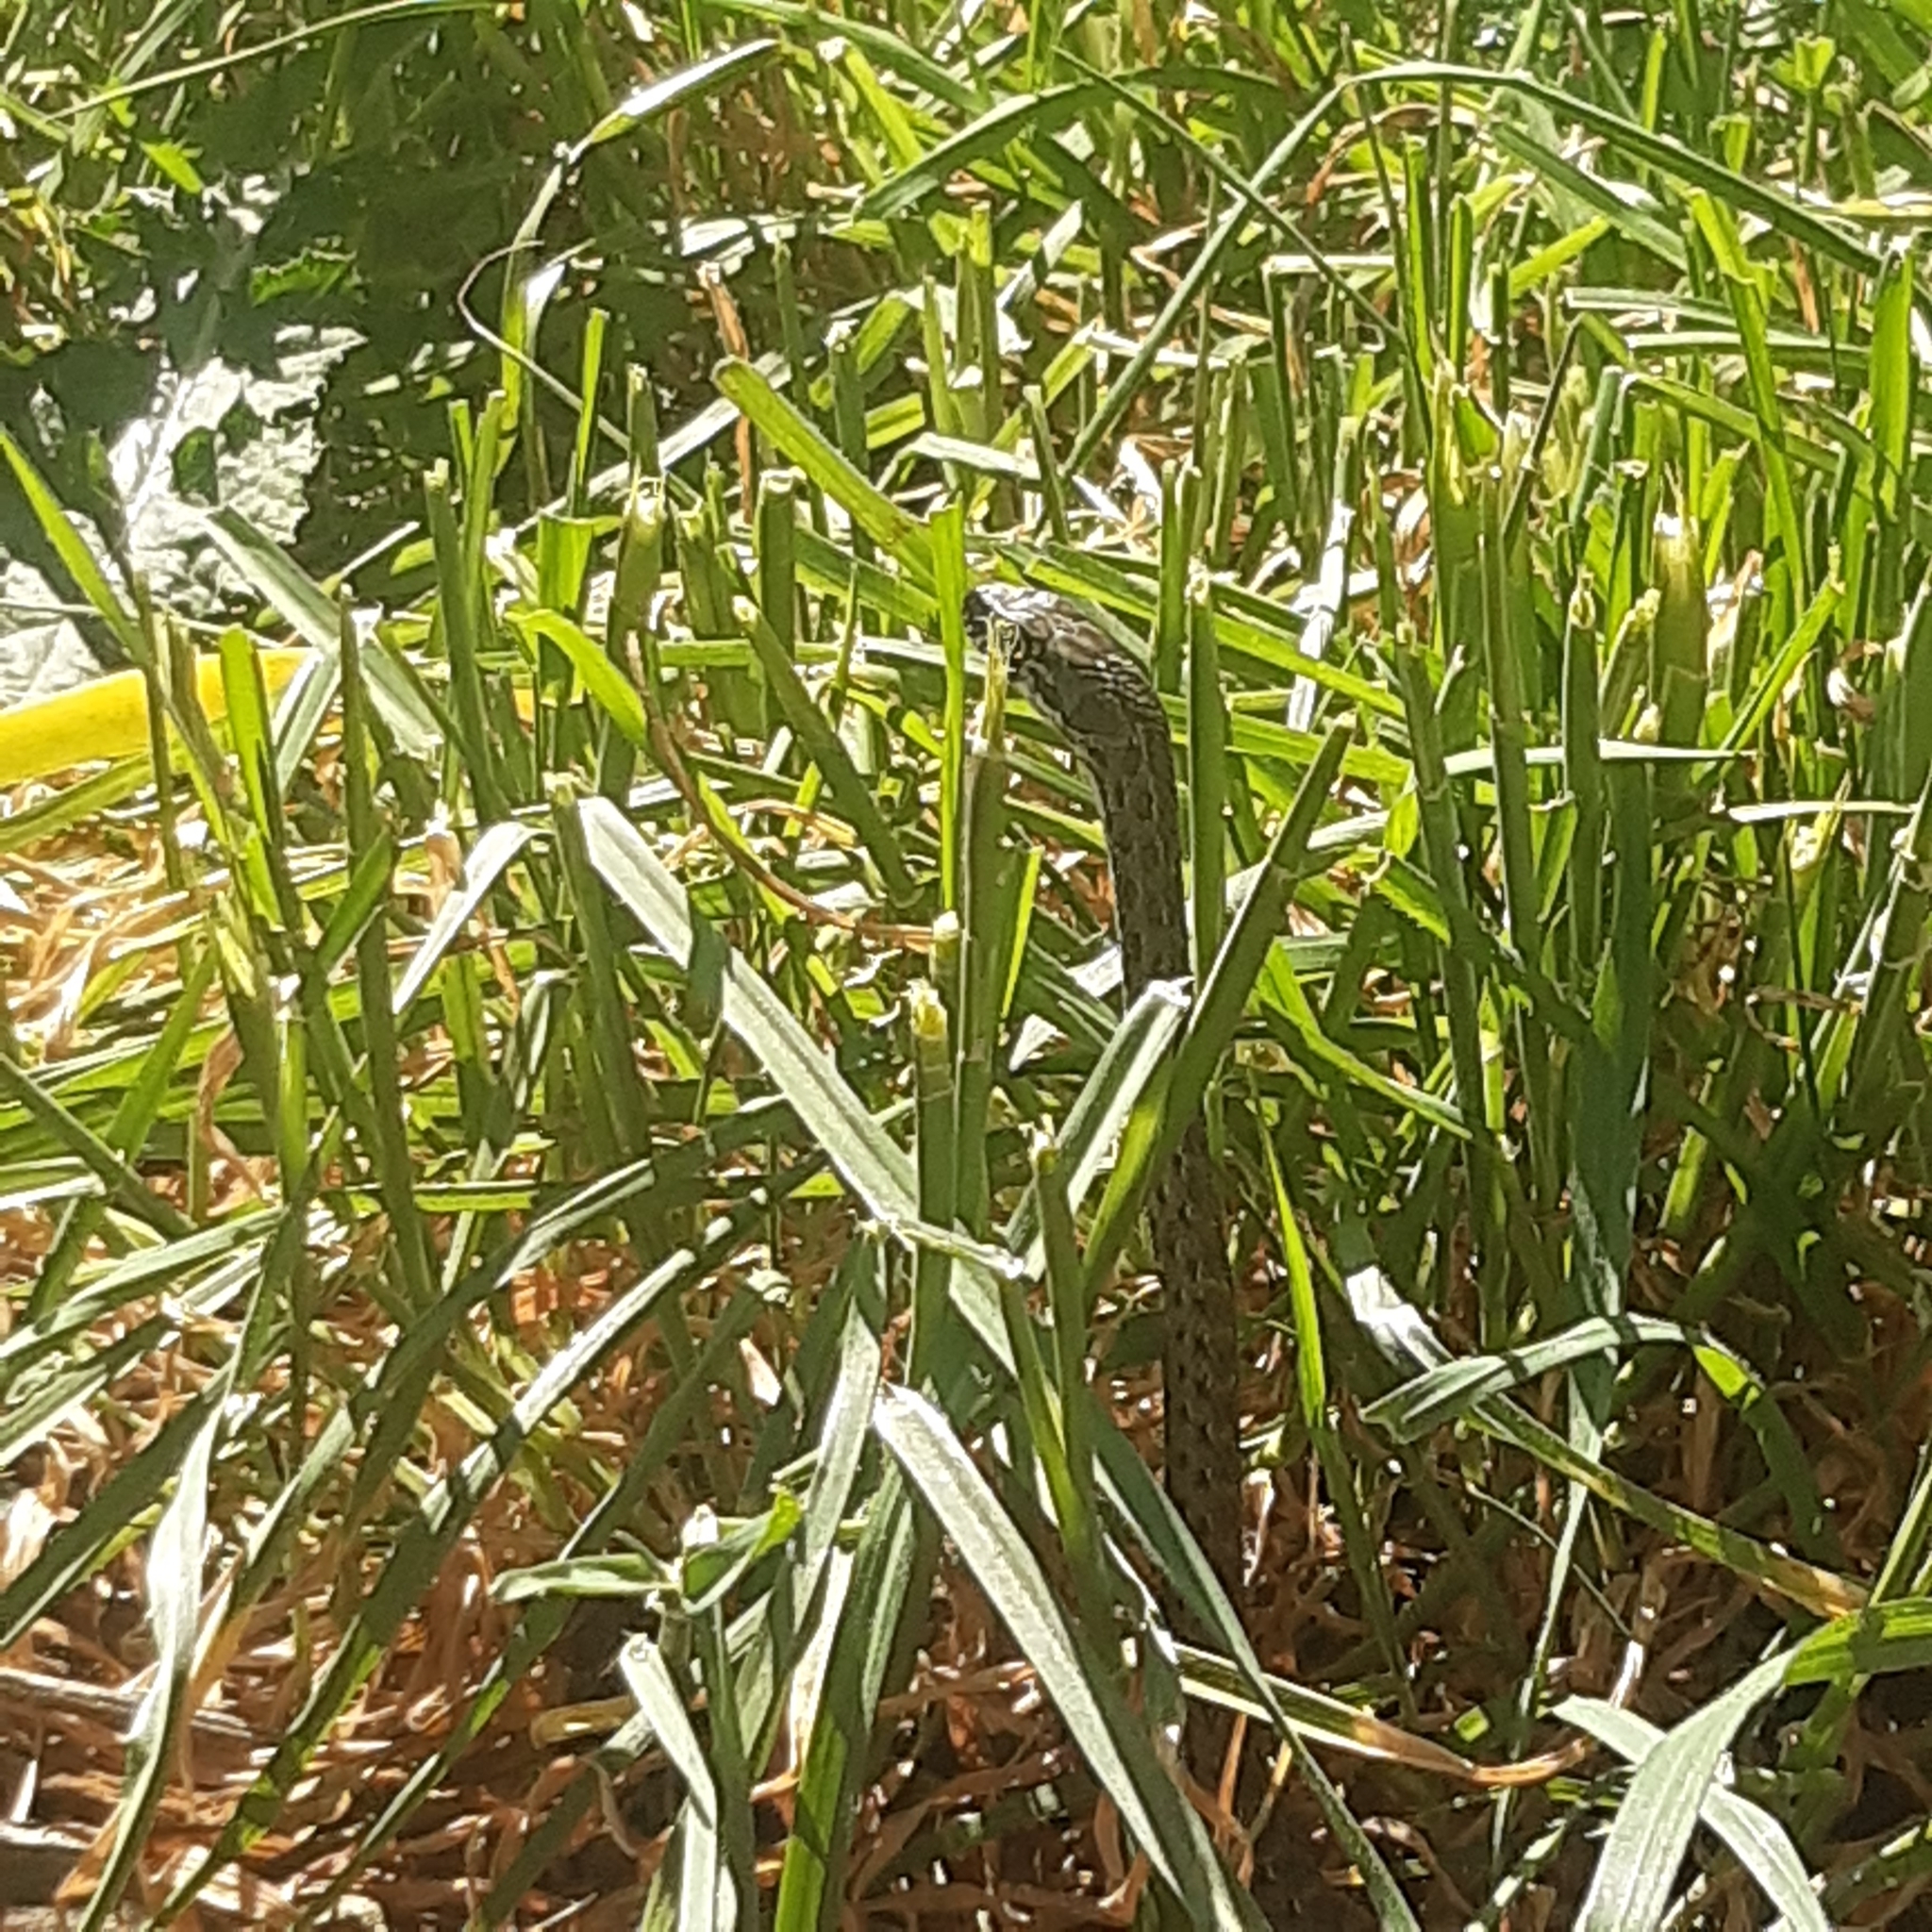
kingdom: Animalia
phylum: Chordata
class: Squamata
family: Psammophiidae
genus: Malpolon
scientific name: Malpolon monspessulanus
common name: Montpellier snake
